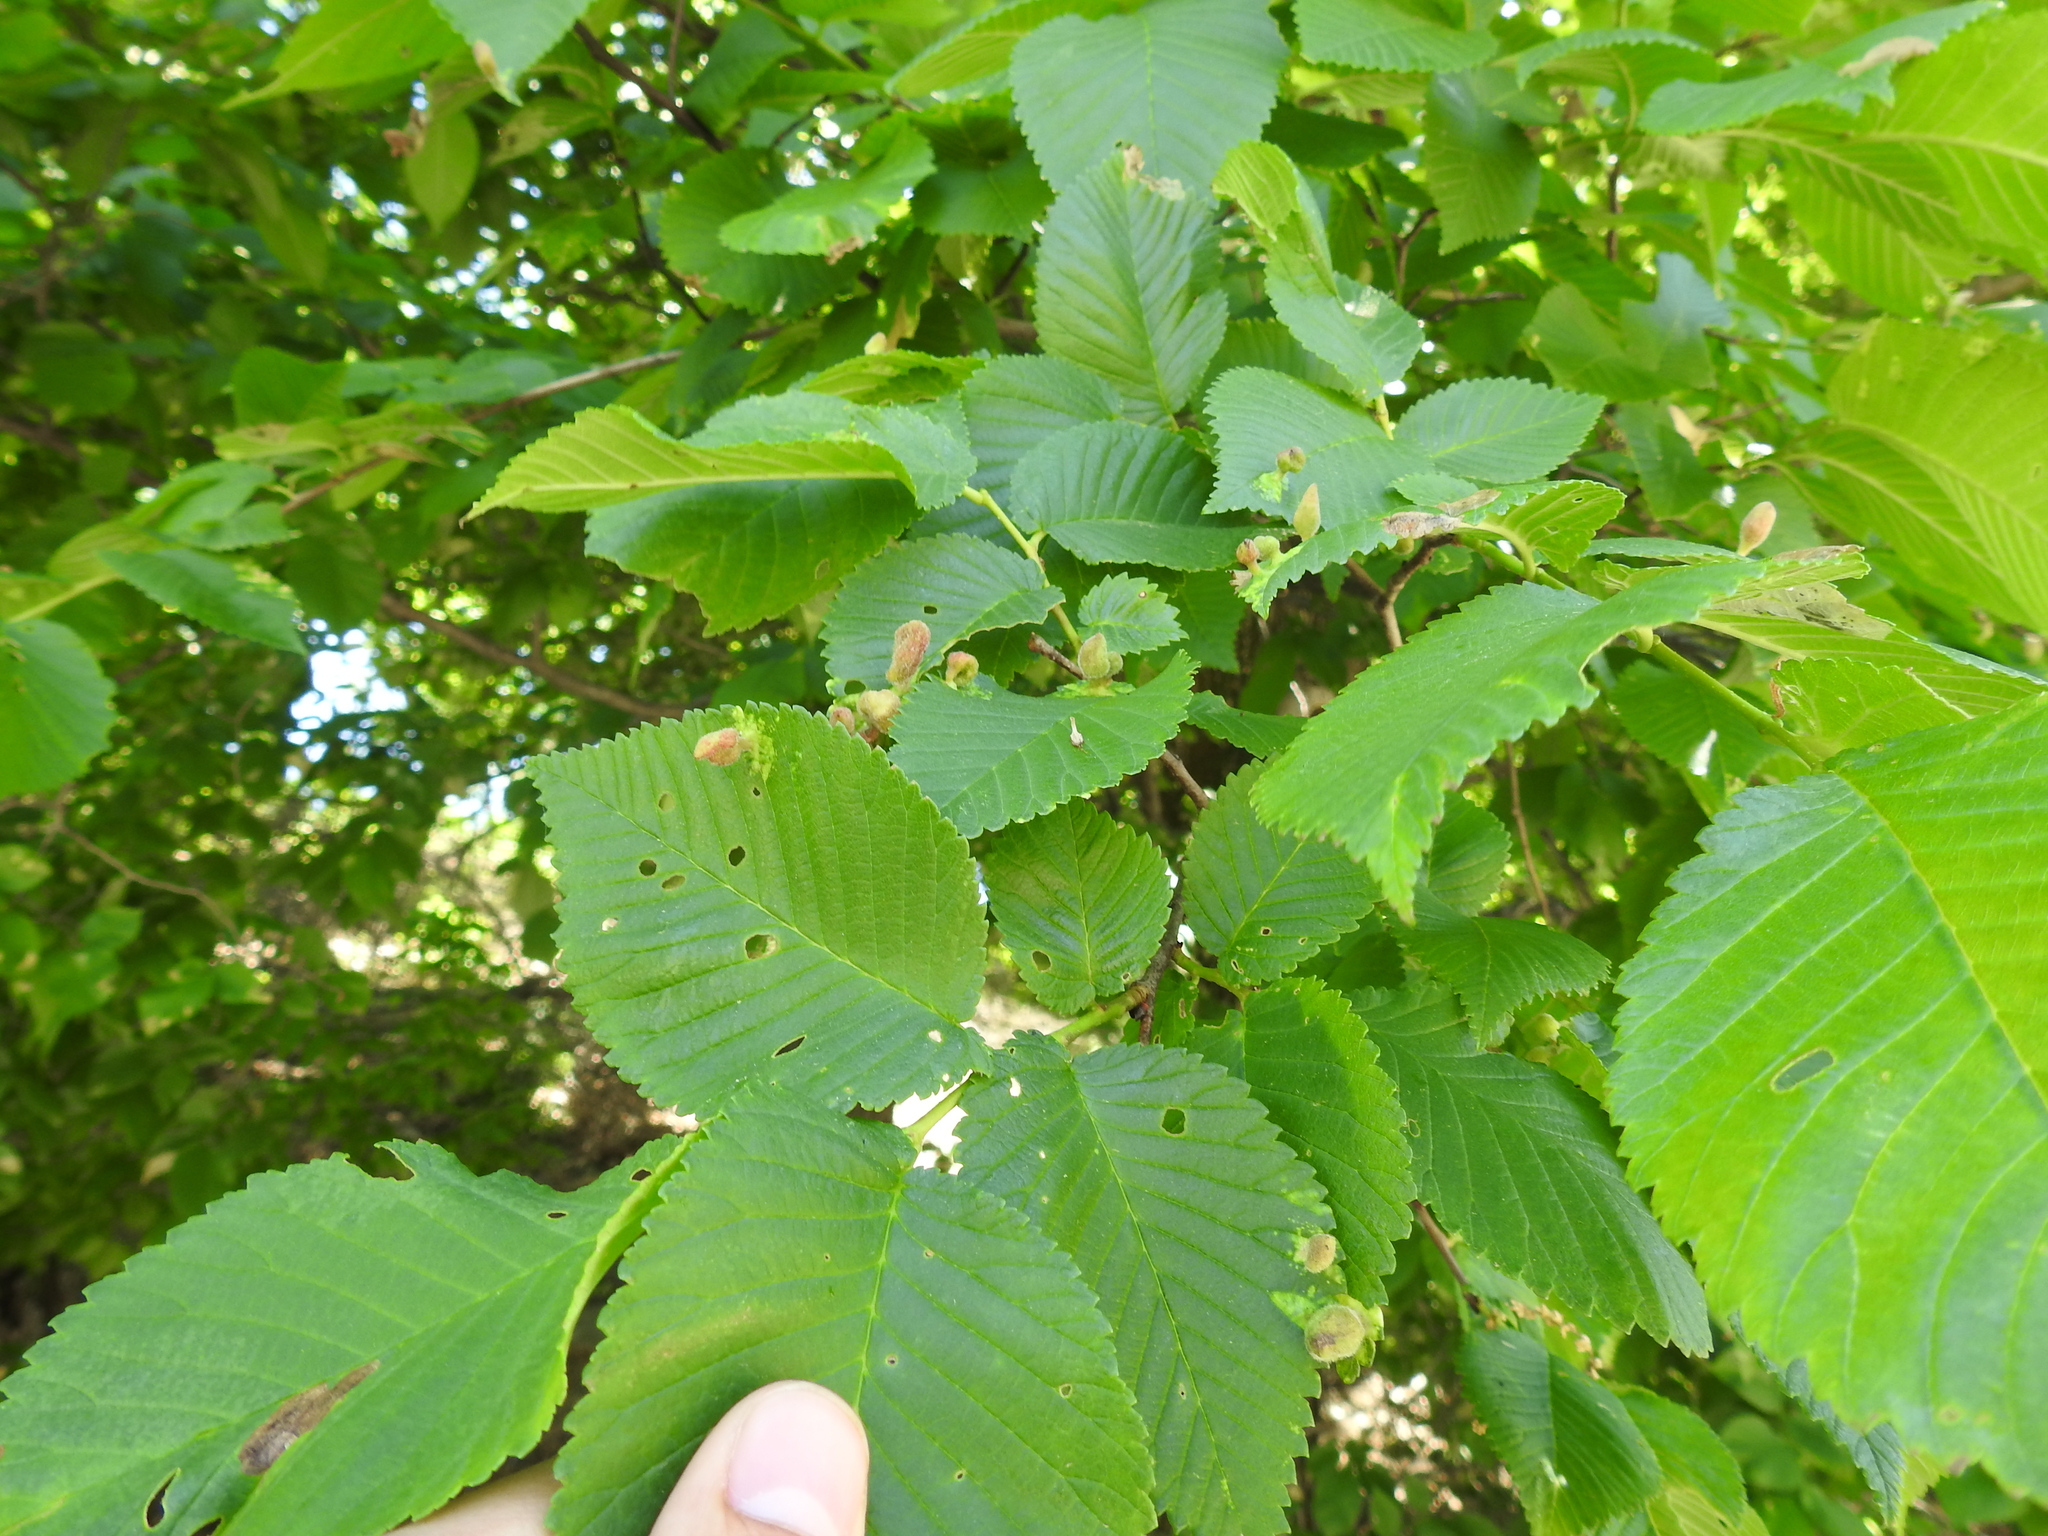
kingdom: Animalia
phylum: Arthropoda
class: Insecta
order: Hemiptera
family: Aphididae
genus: Tetraneura
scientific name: Tetraneura nigriabdominalis
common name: Aphid
